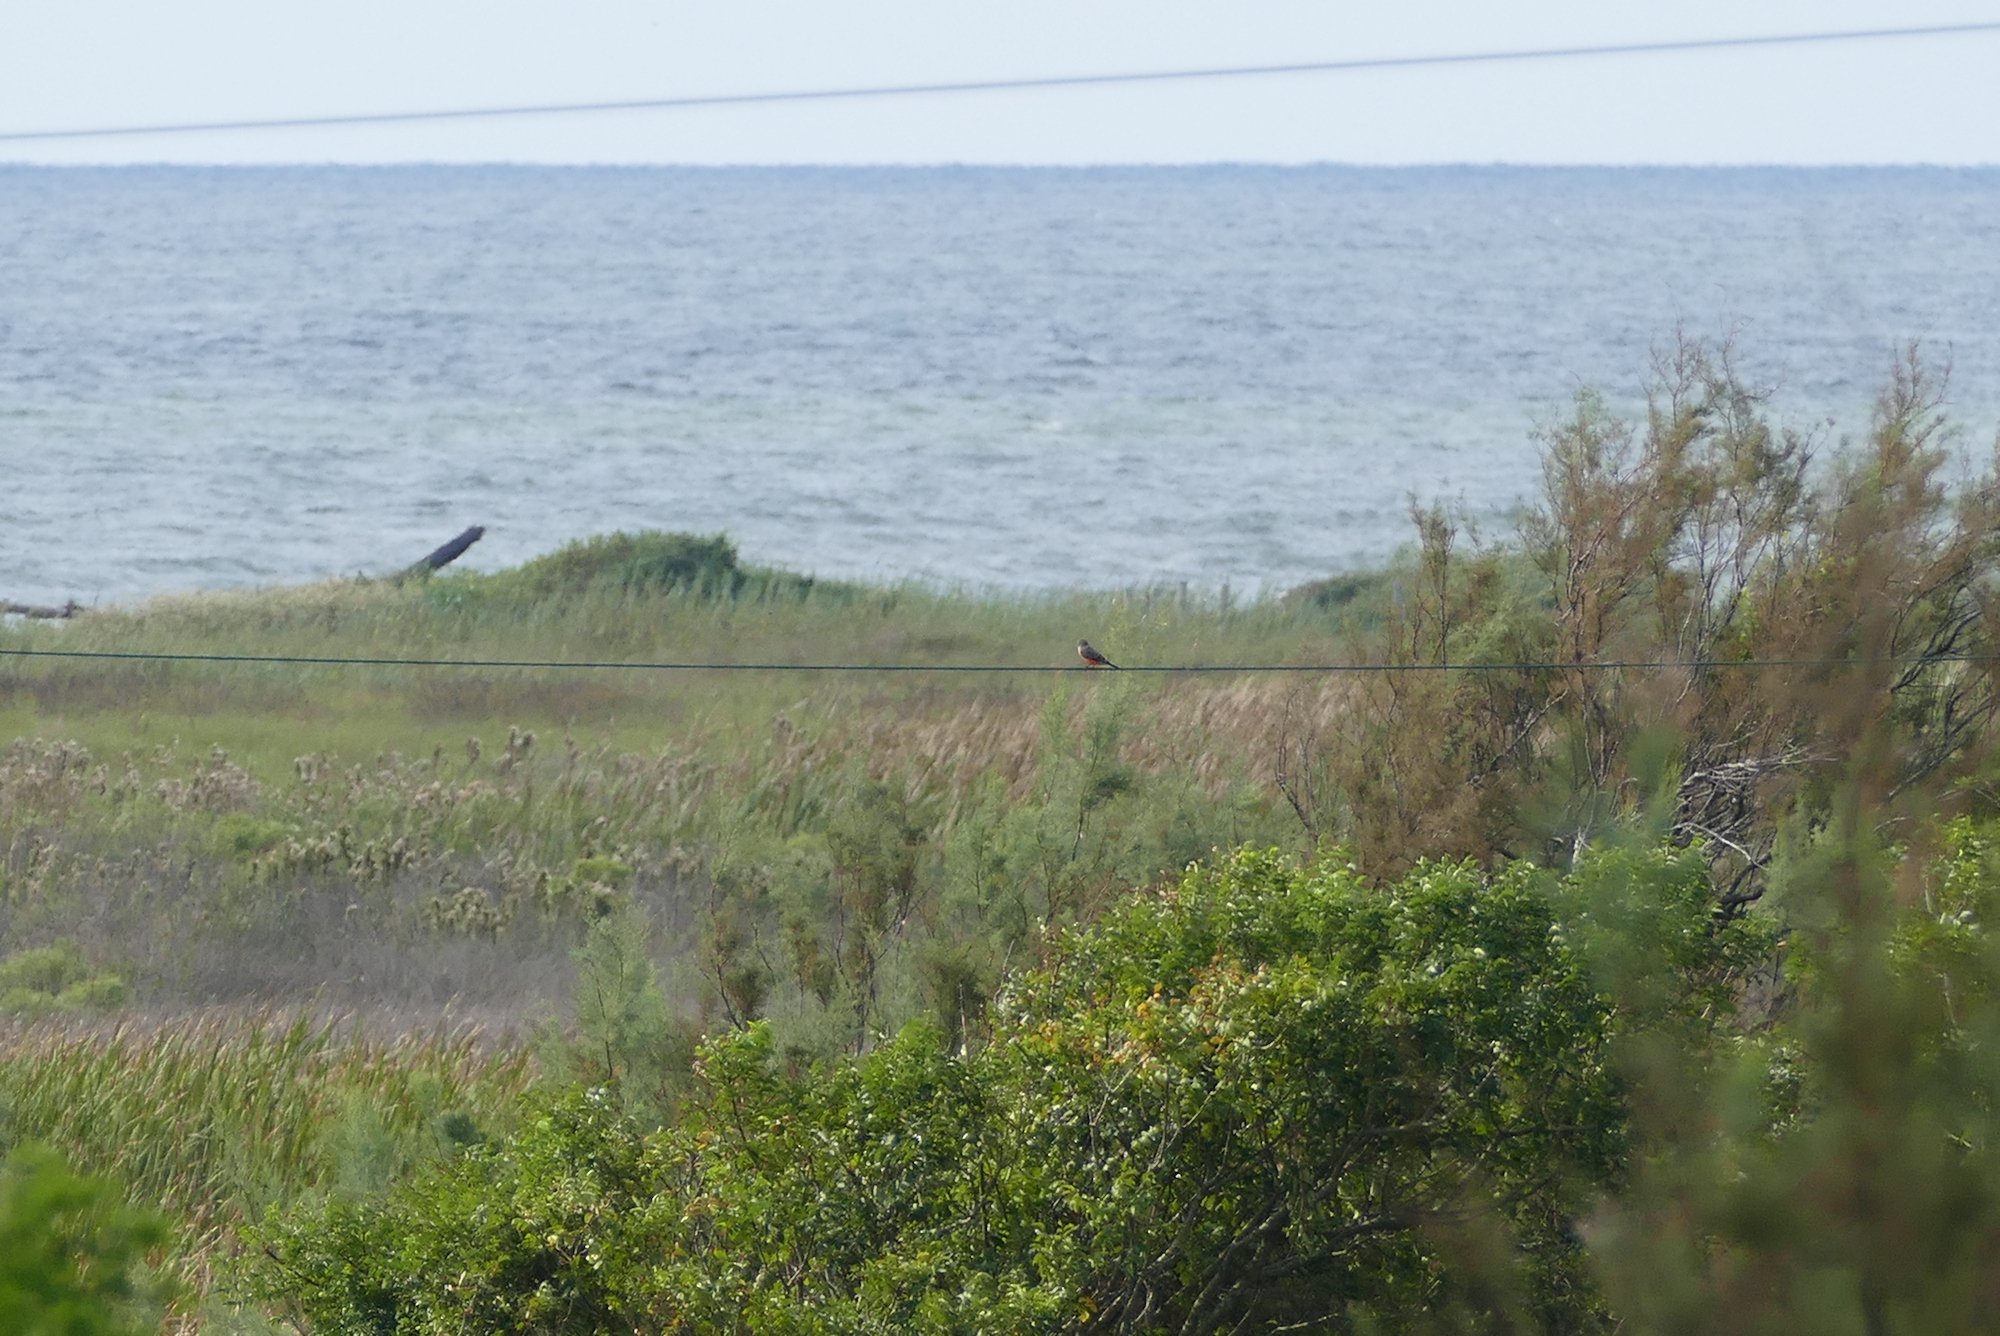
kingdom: Animalia
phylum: Chordata
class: Aves
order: Passeriformes
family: Tyrannidae
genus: Pyrocephalus
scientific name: Pyrocephalus rubinus
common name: Vermilion flycatcher
